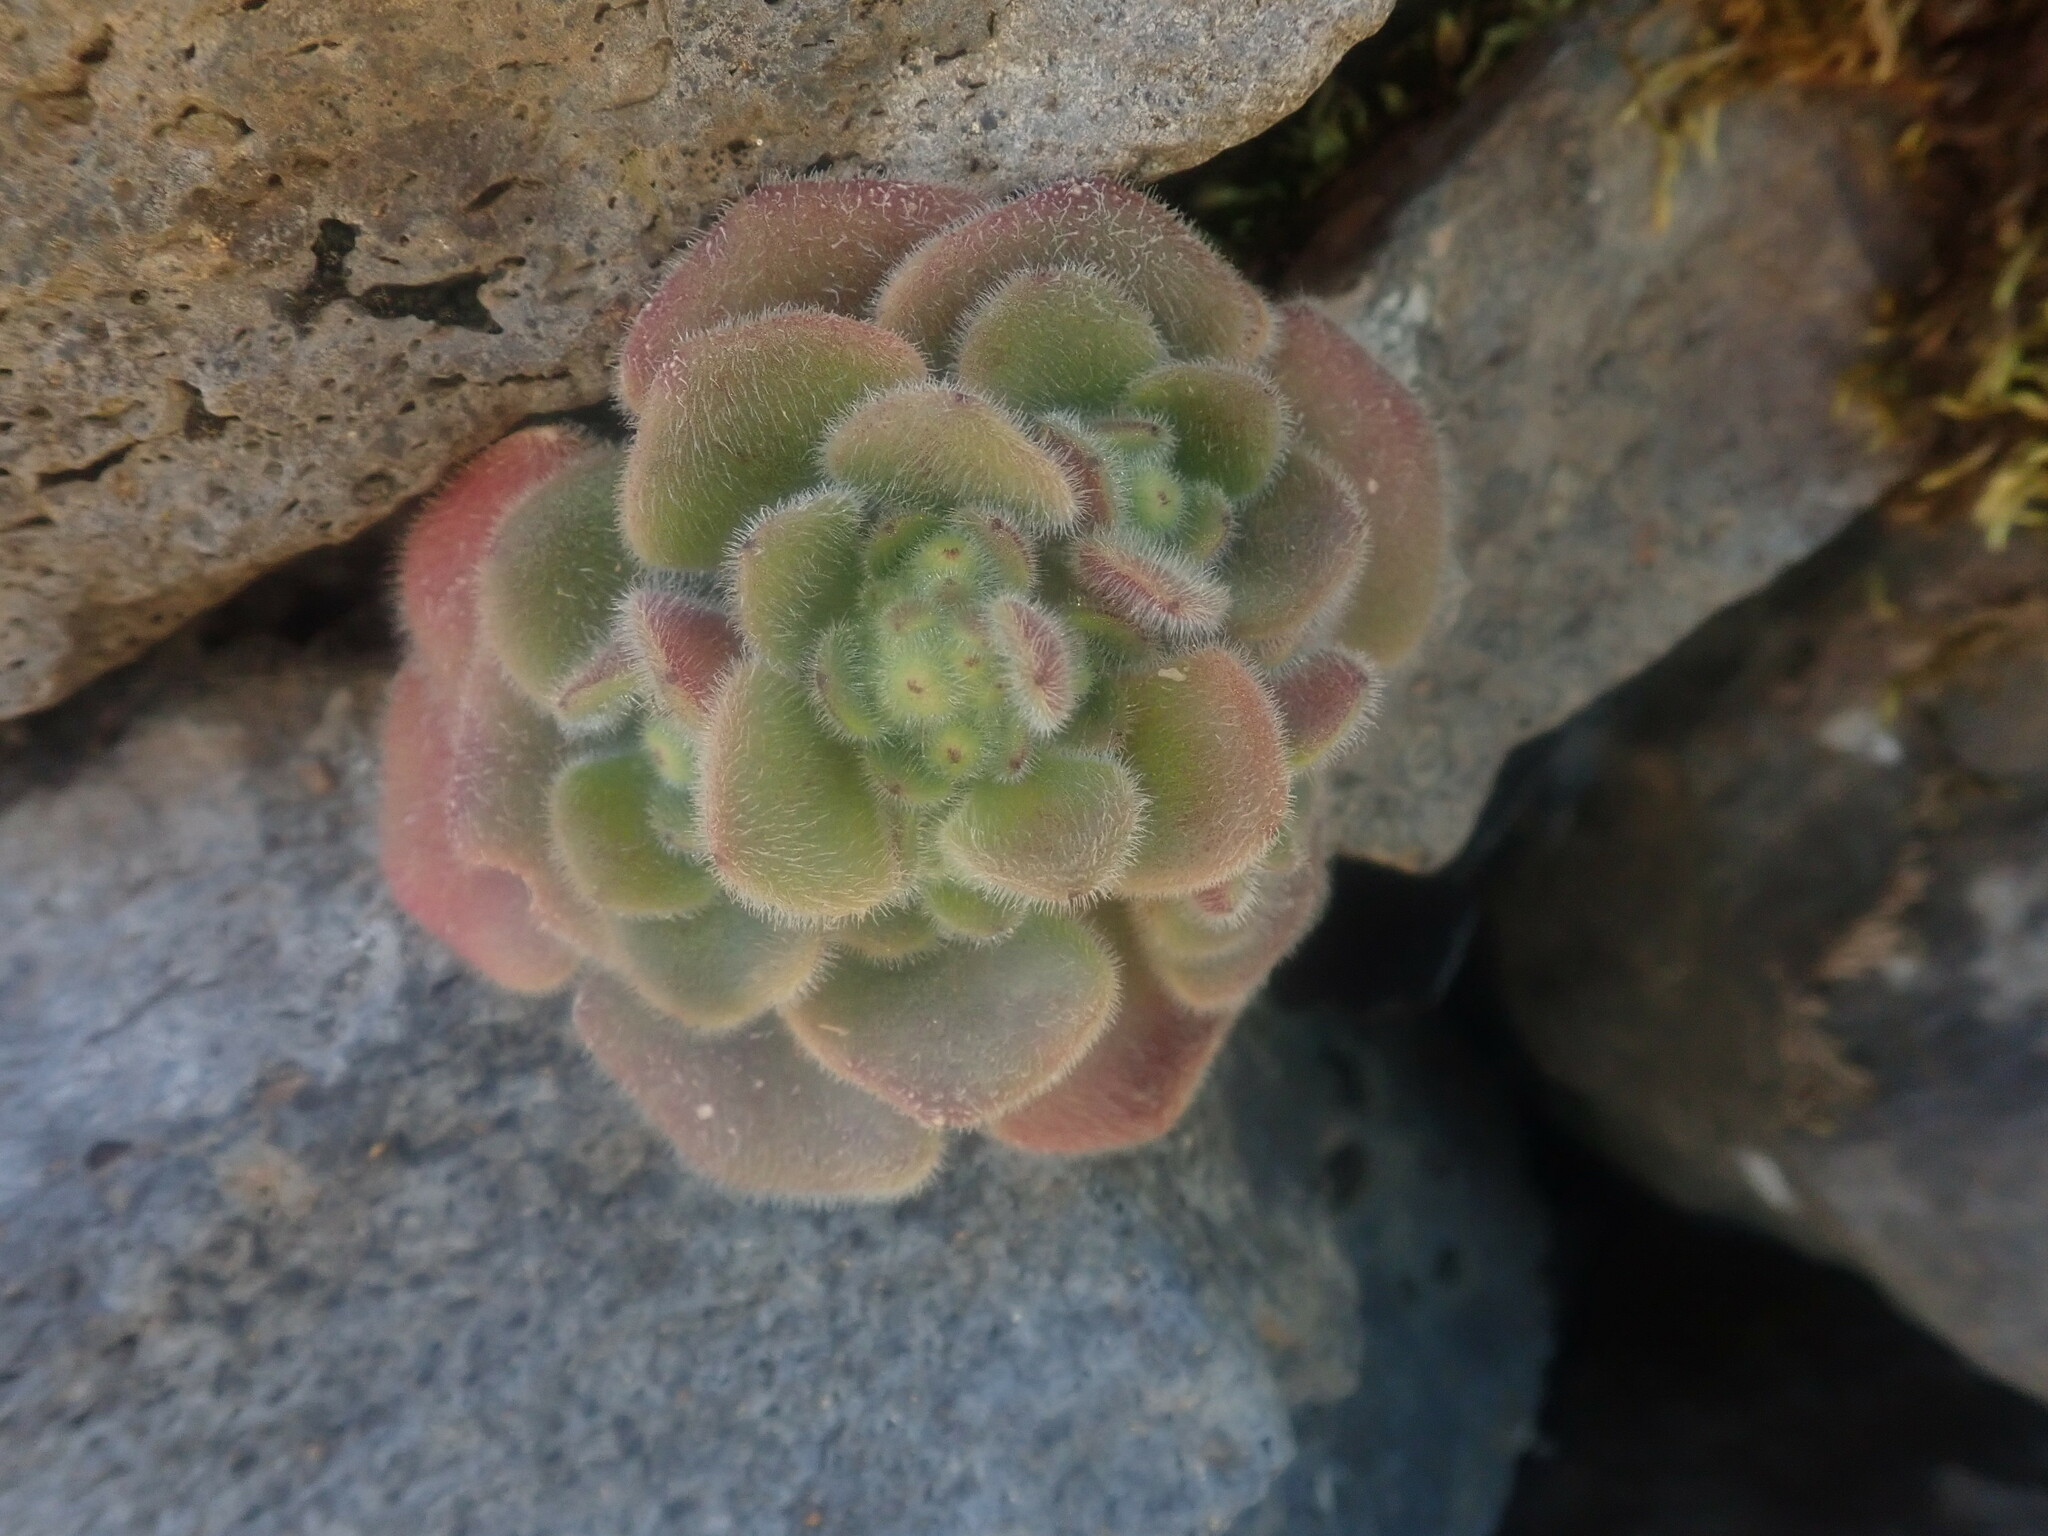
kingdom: Plantae
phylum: Tracheophyta
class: Magnoliopsida
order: Saxifragales
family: Crassulaceae
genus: Aichryson
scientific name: Aichryson villosum
